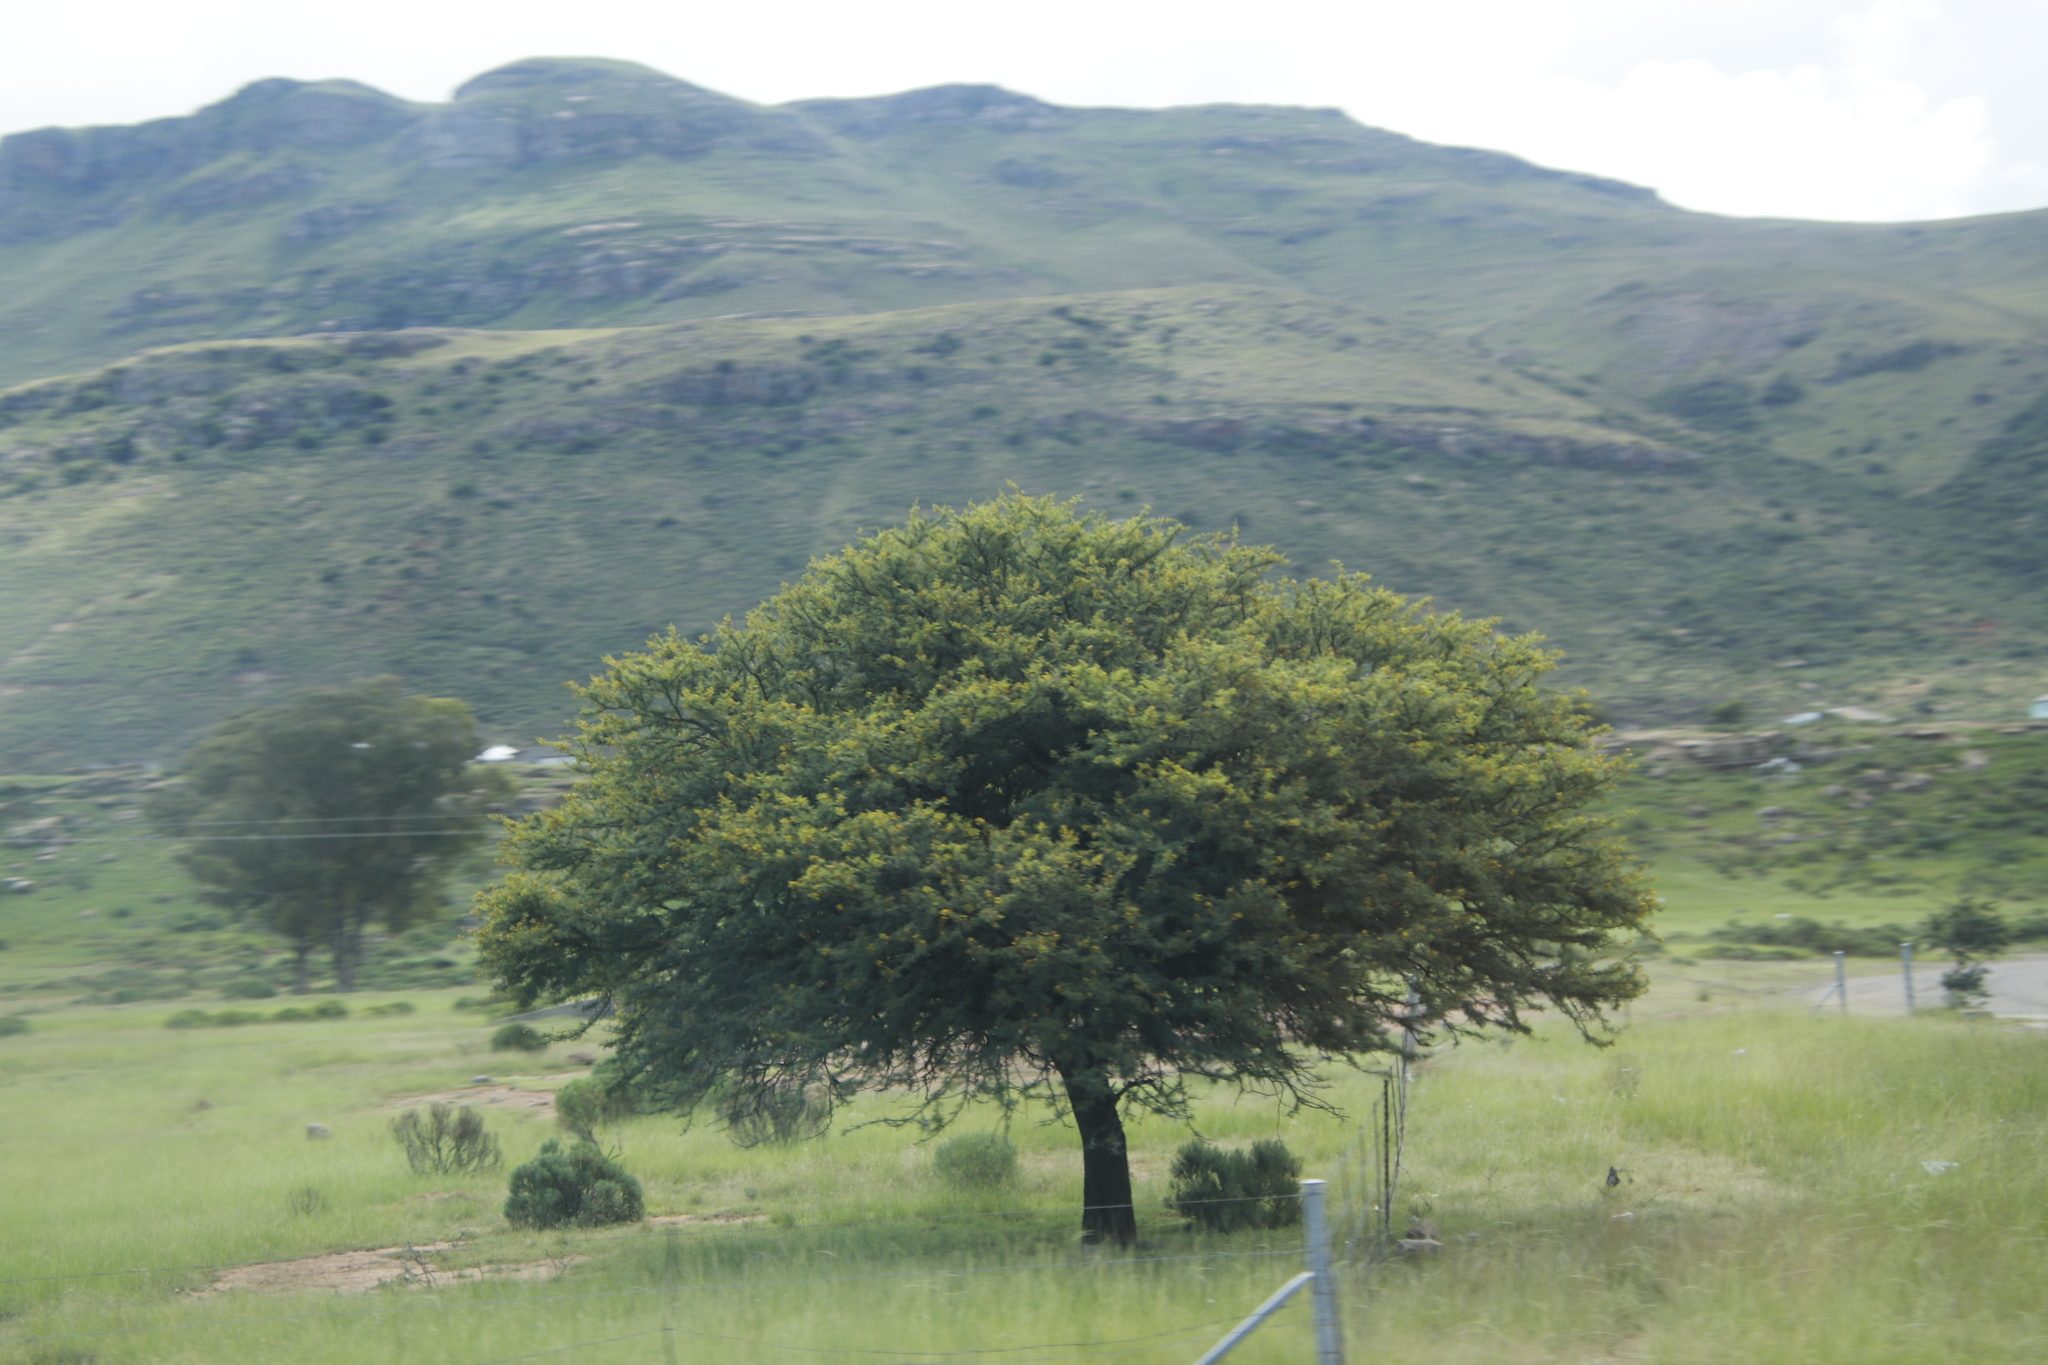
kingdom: Plantae
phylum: Tracheophyta
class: Magnoliopsida
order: Fabales
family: Fabaceae
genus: Vachellia
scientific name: Vachellia karroo
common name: Sweet thorn
